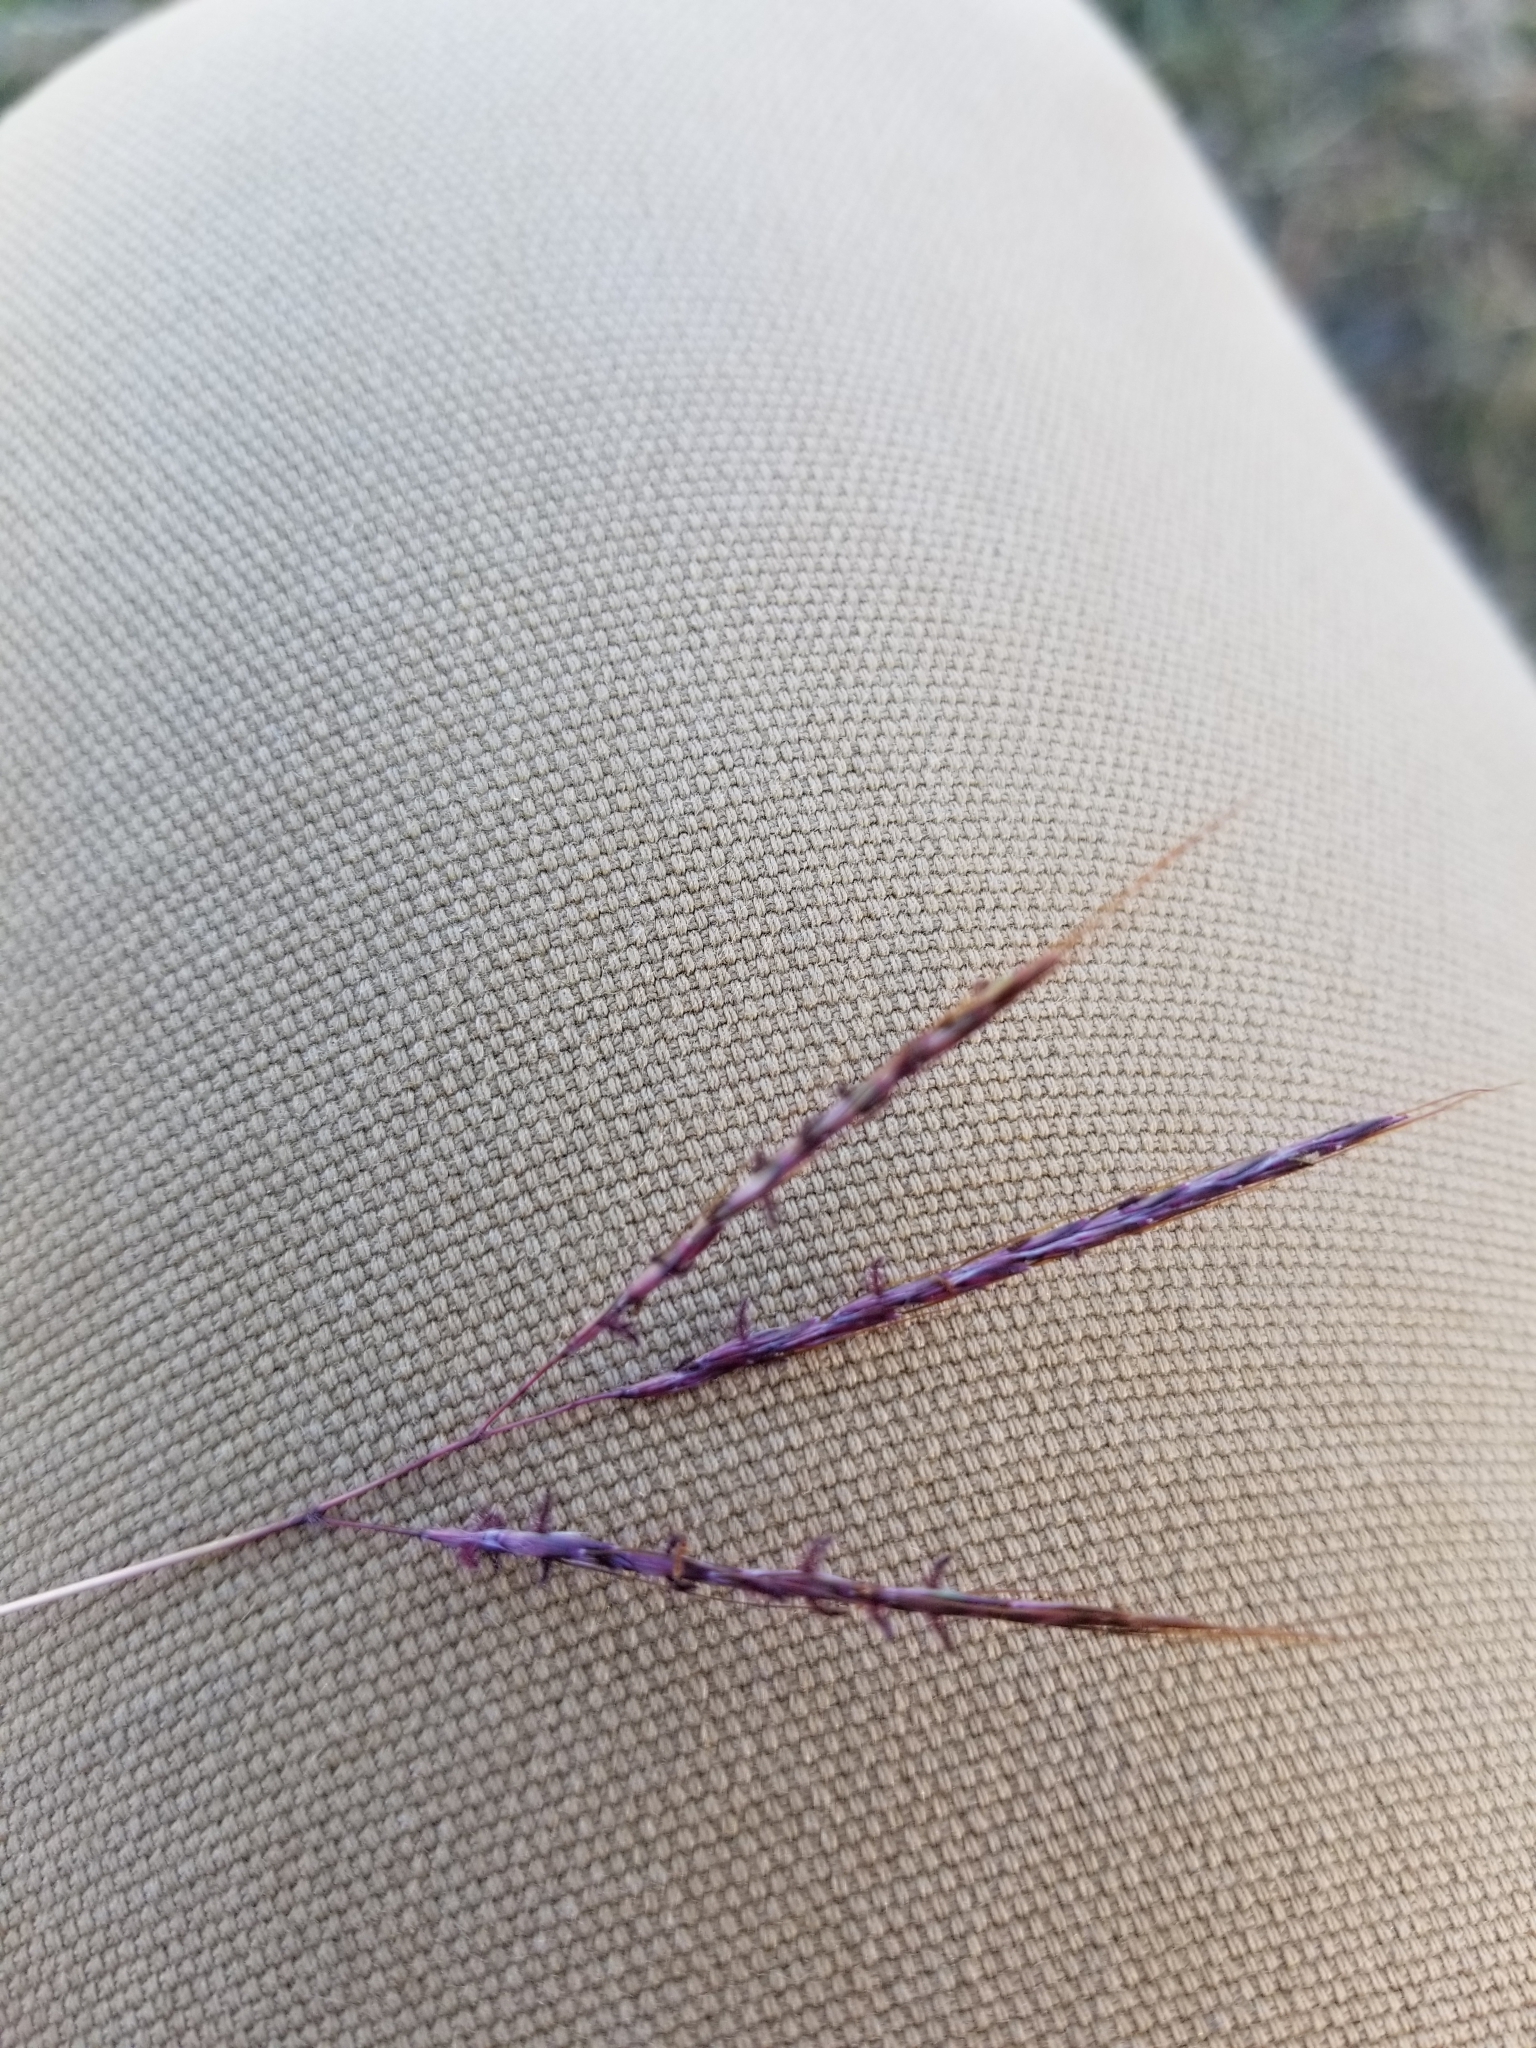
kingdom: Plantae
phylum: Tracheophyta
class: Liliopsida
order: Poales
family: Poaceae
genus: Bothriochloa
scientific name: Bothriochloa ischaemum
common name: Yellow bluestem
